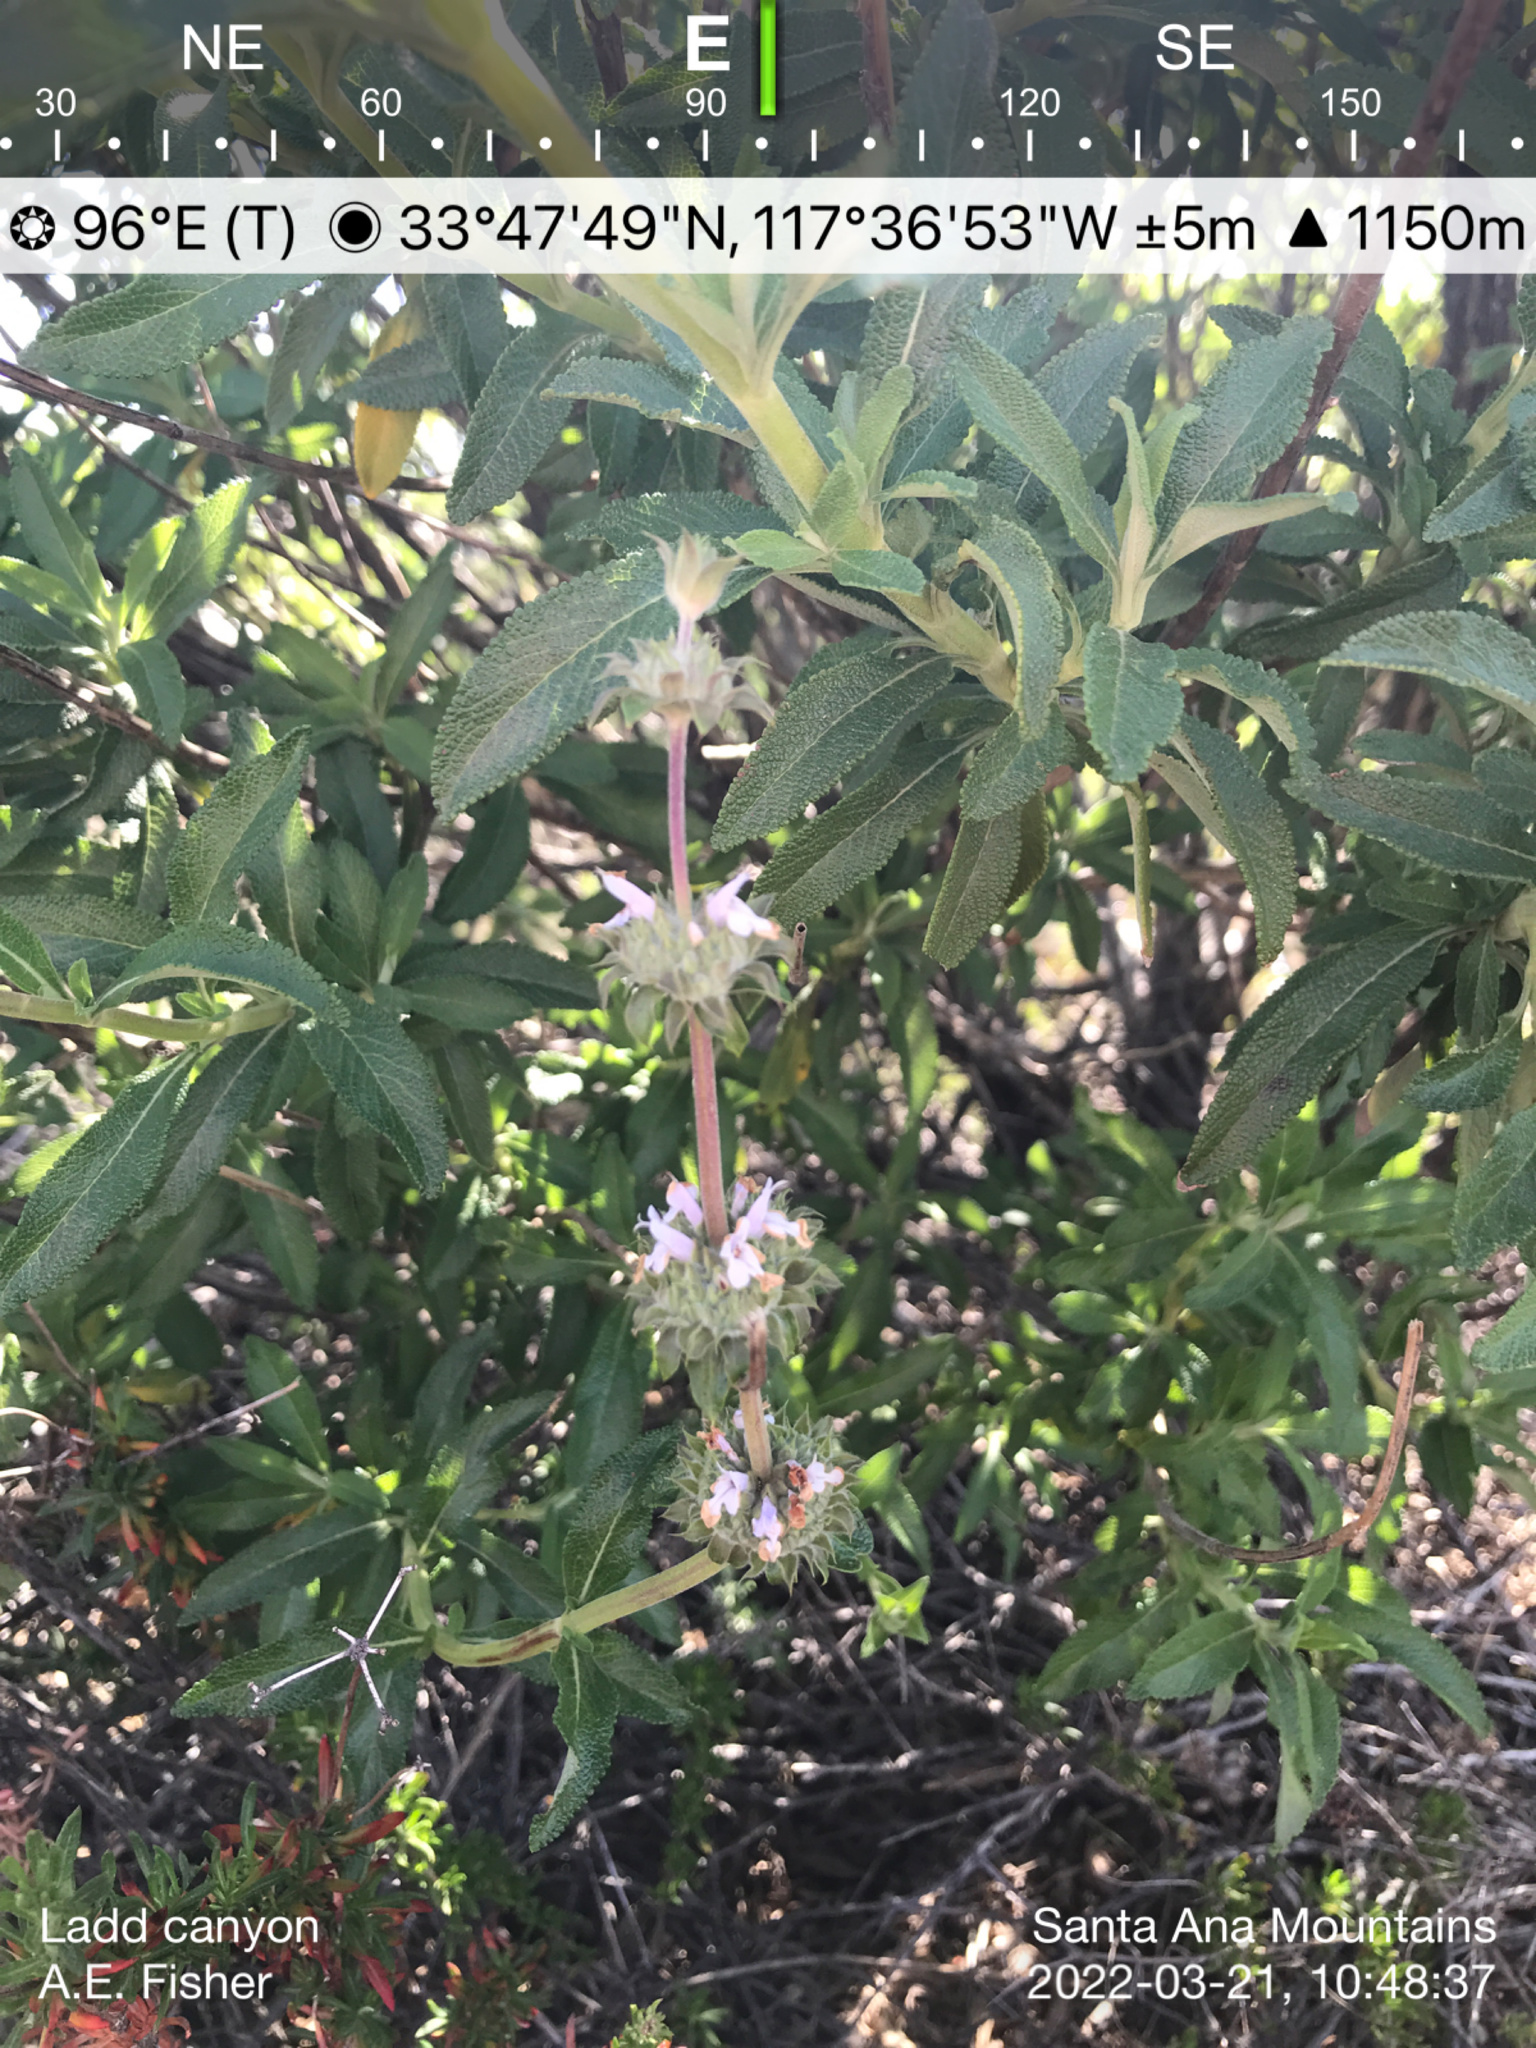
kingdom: Plantae
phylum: Tracheophyta
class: Magnoliopsida
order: Lamiales
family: Lamiaceae
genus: Salvia
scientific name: Salvia mellifera
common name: Black sage
